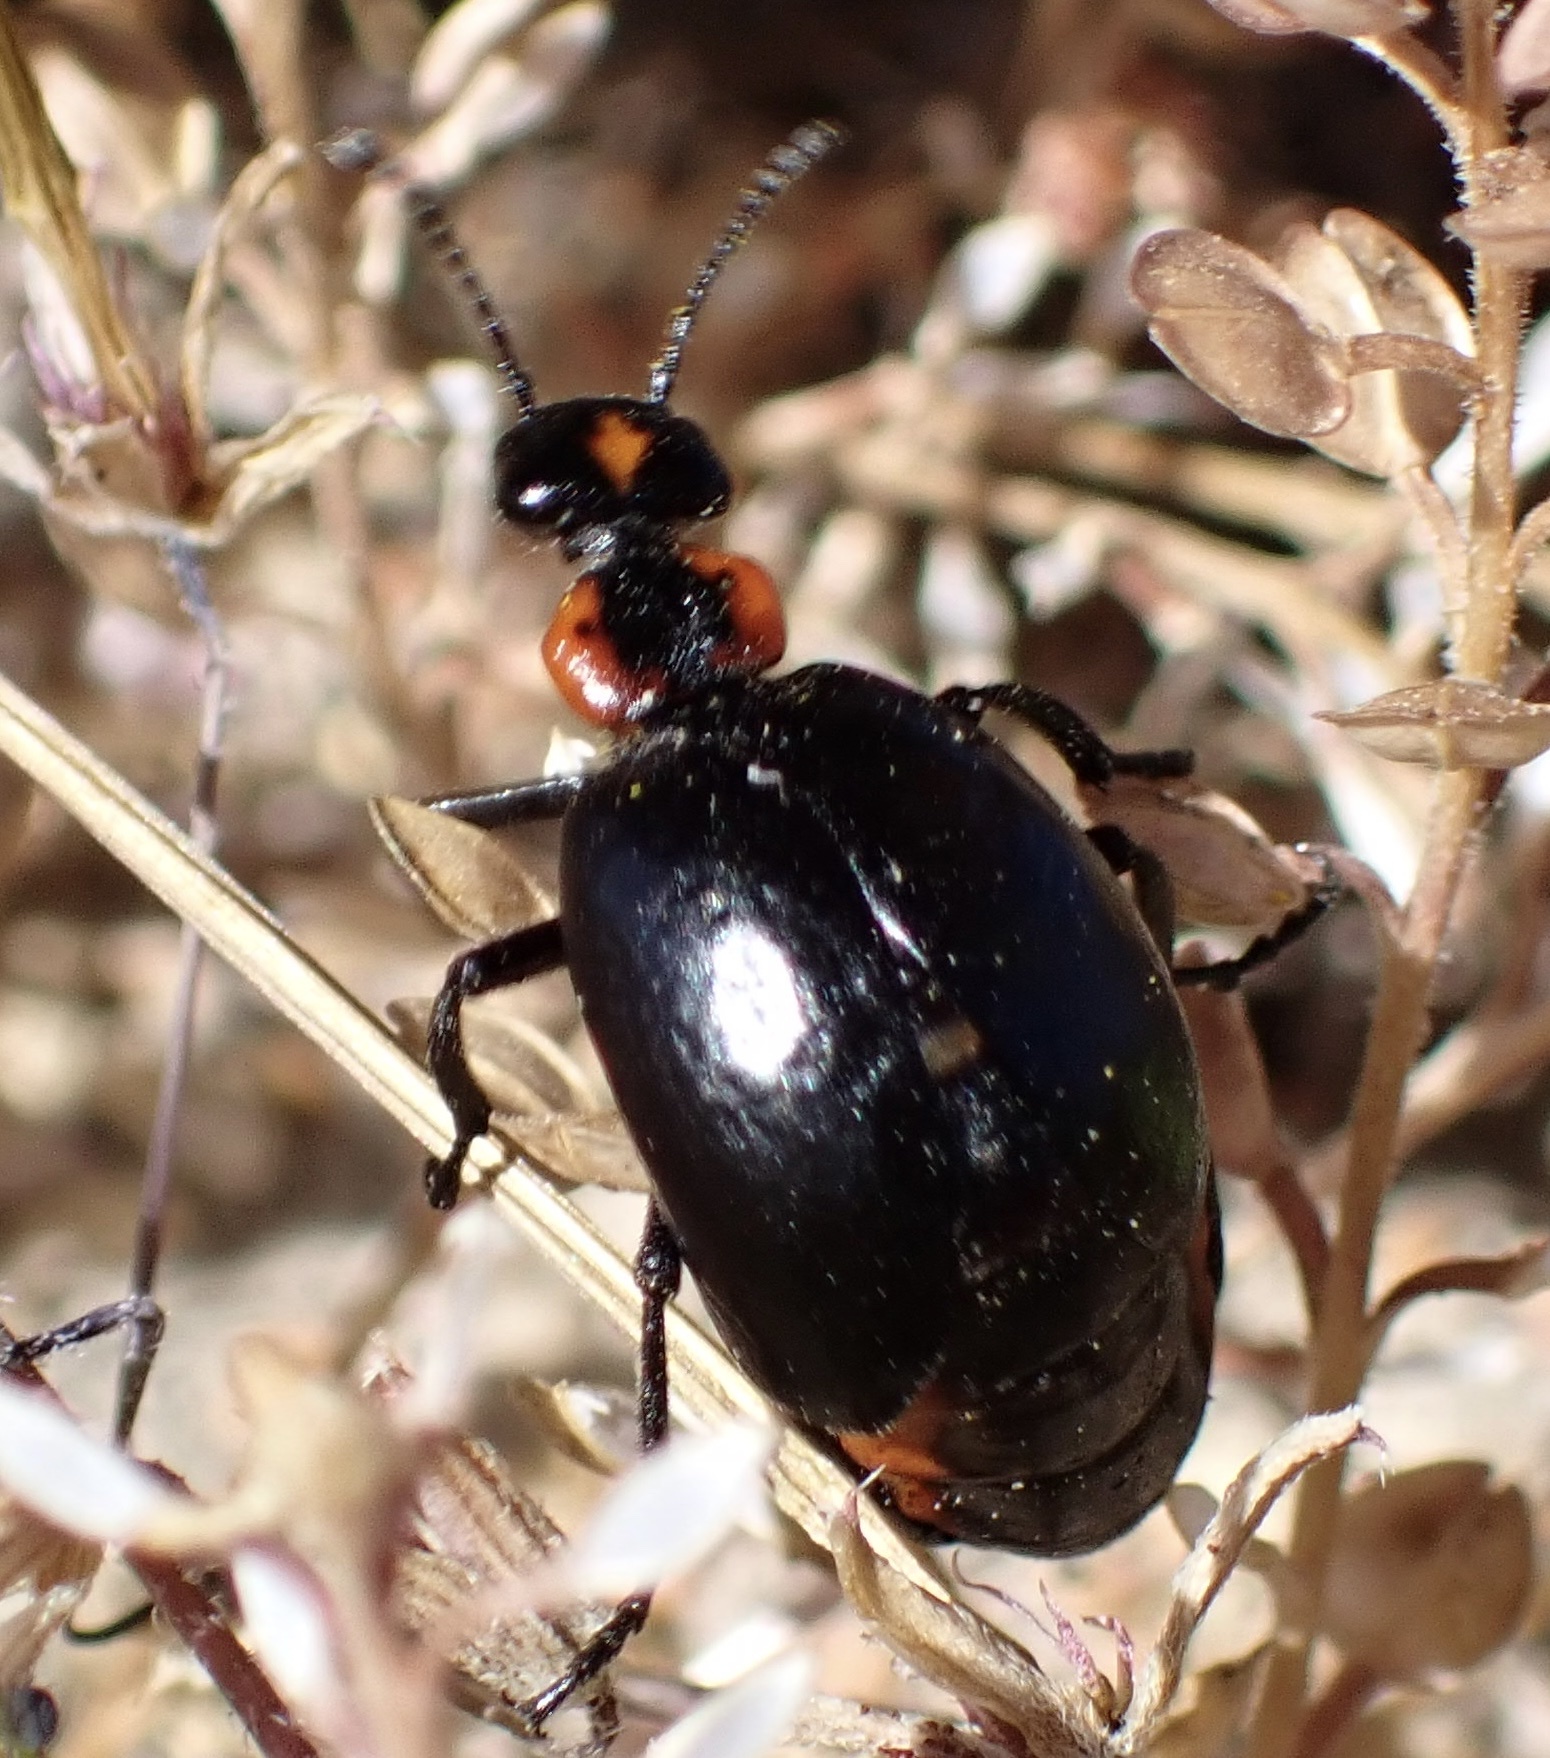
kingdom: Animalia
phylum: Arthropoda
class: Insecta
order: Coleoptera
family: Meloidae
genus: Lytta
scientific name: Lytta sublaevis
